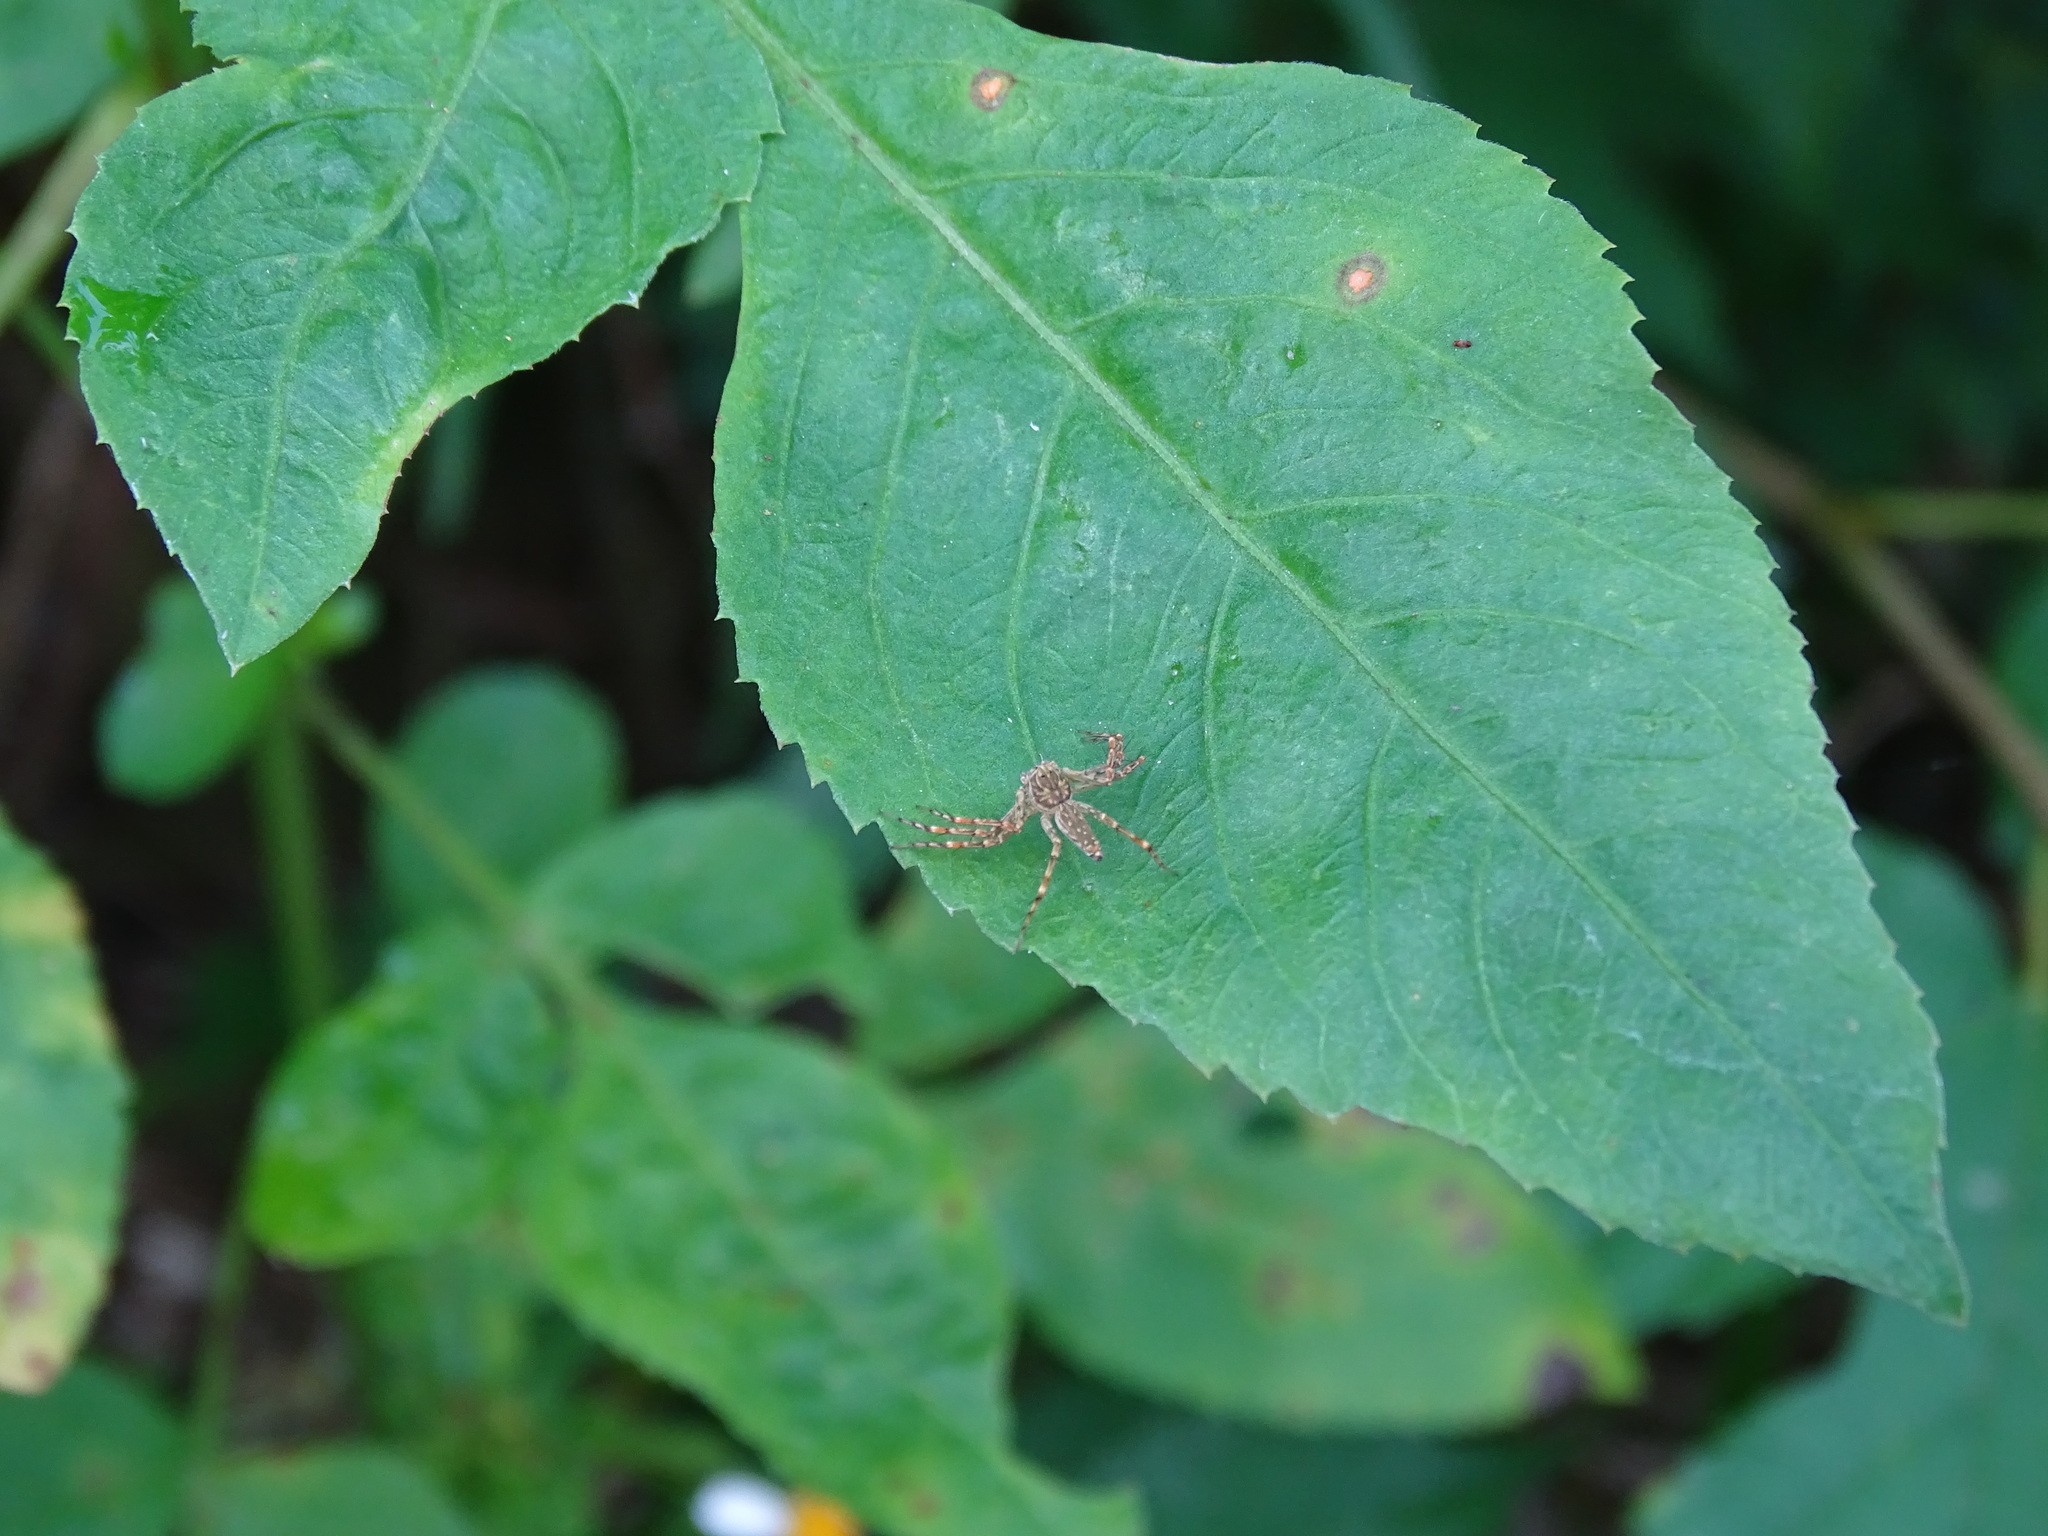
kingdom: Animalia
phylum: Arthropoda
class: Arachnida
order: Araneae
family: Oxyopidae
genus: Hamadruas
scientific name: Hamadruas hieroglyphica
